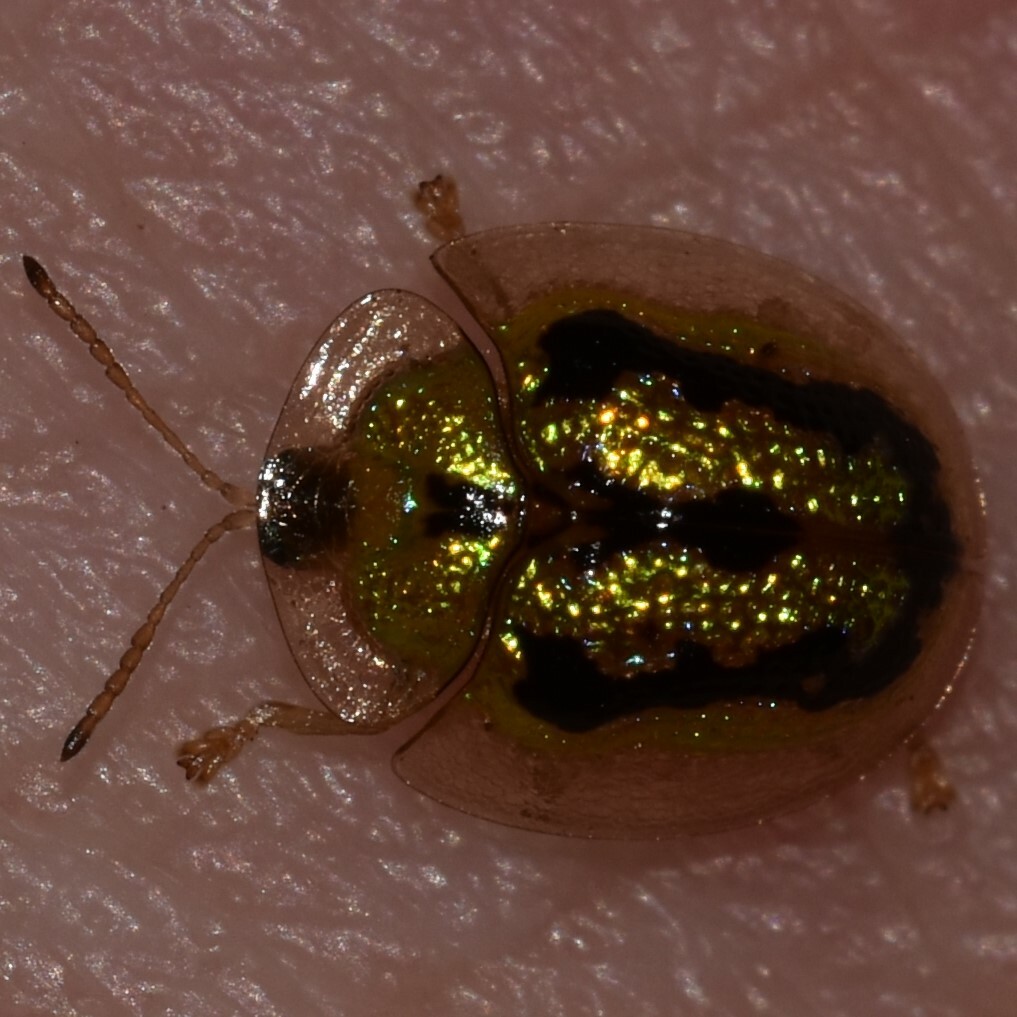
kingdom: Animalia
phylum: Arthropoda
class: Insecta
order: Coleoptera
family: Chrysomelidae
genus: Cassida
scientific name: Cassida circumdata
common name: Tortoise beetle
